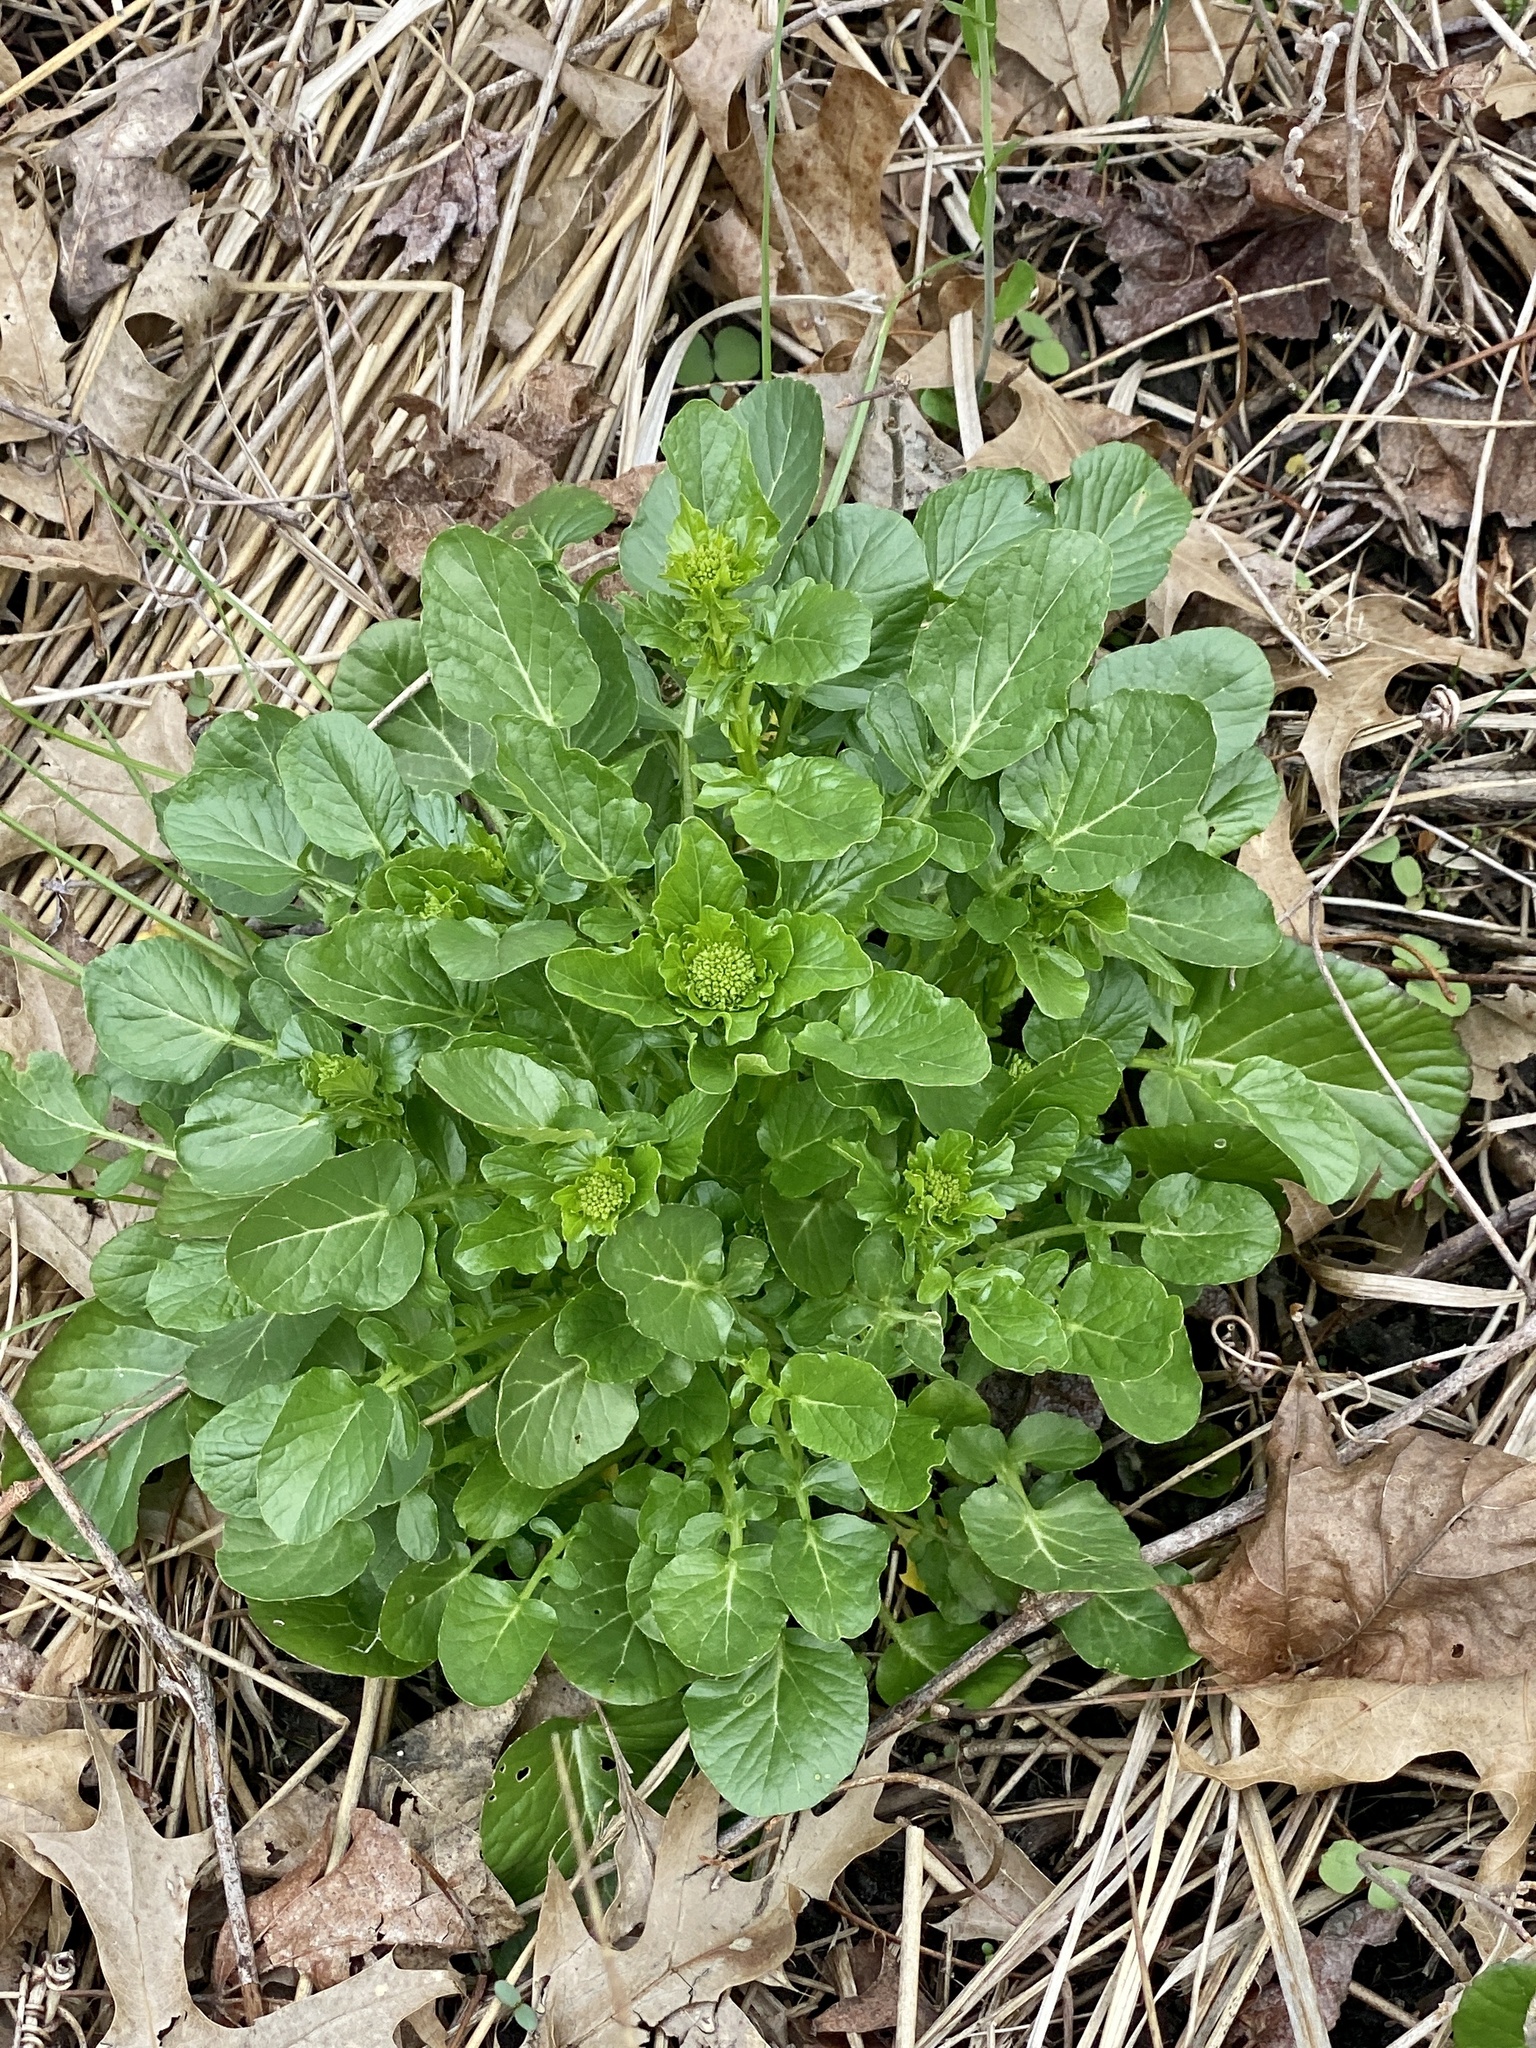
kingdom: Plantae
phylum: Tracheophyta
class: Magnoliopsida
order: Brassicales
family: Brassicaceae
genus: Barbarea
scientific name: Barbarea vulgaris
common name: Cressy-greens
